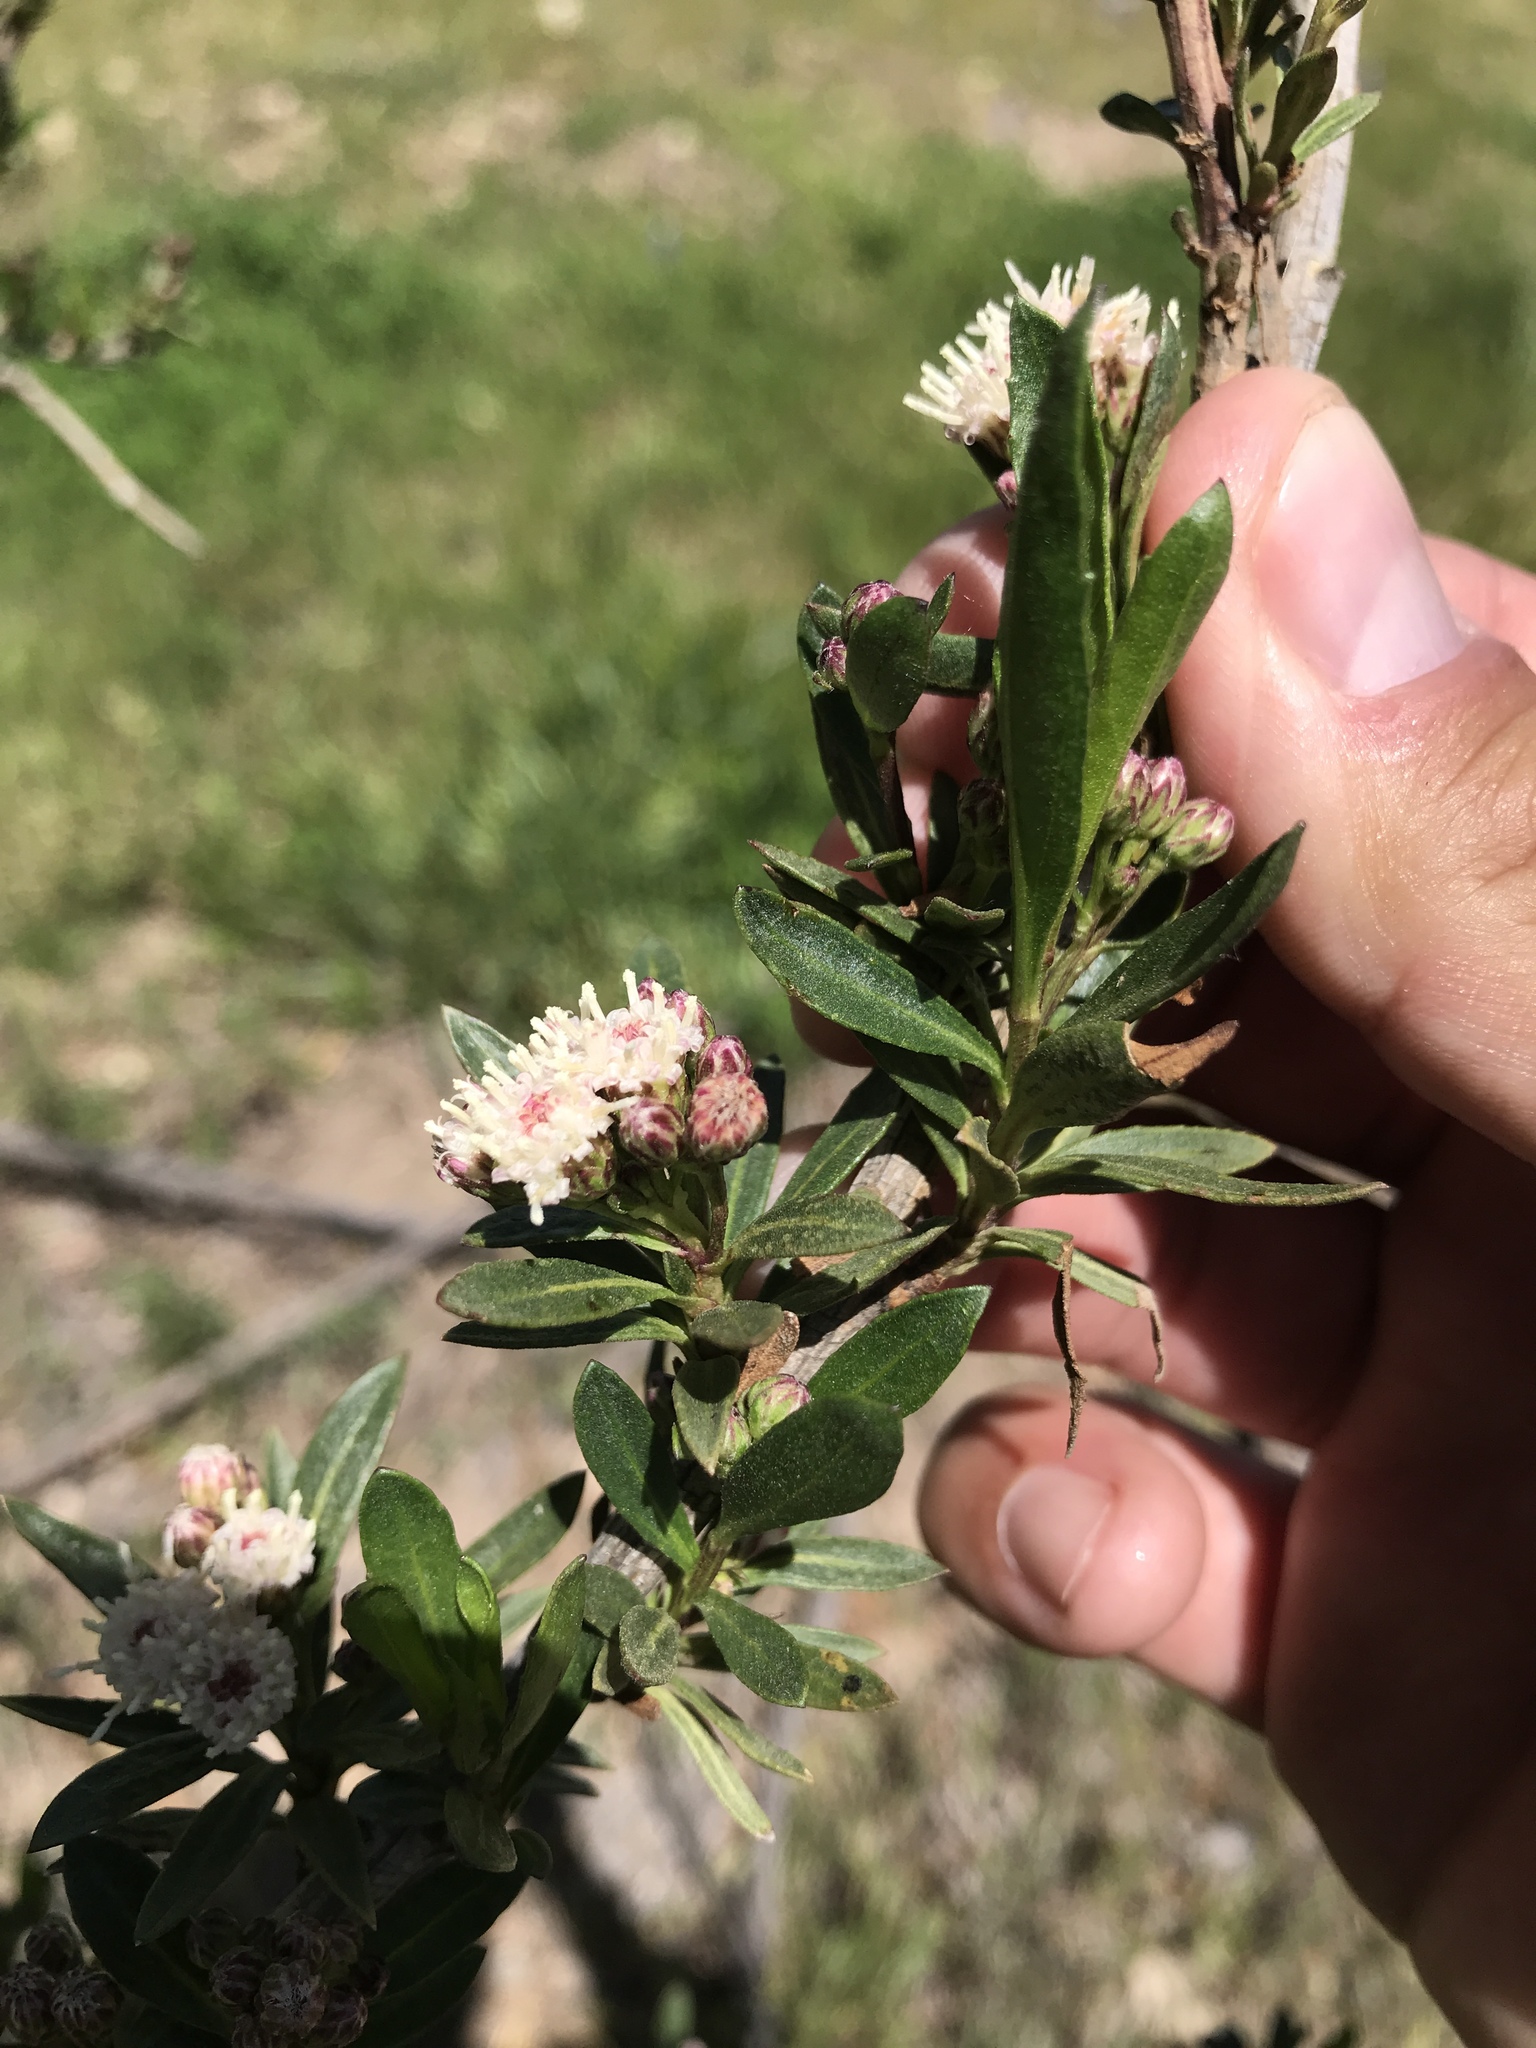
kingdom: Plantae
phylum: Tracheophyta
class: Magnoliopsida
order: Asterales
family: Asteraceae
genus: Baccharis
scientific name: Baccharis salicifolia
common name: Sticky baccharis
